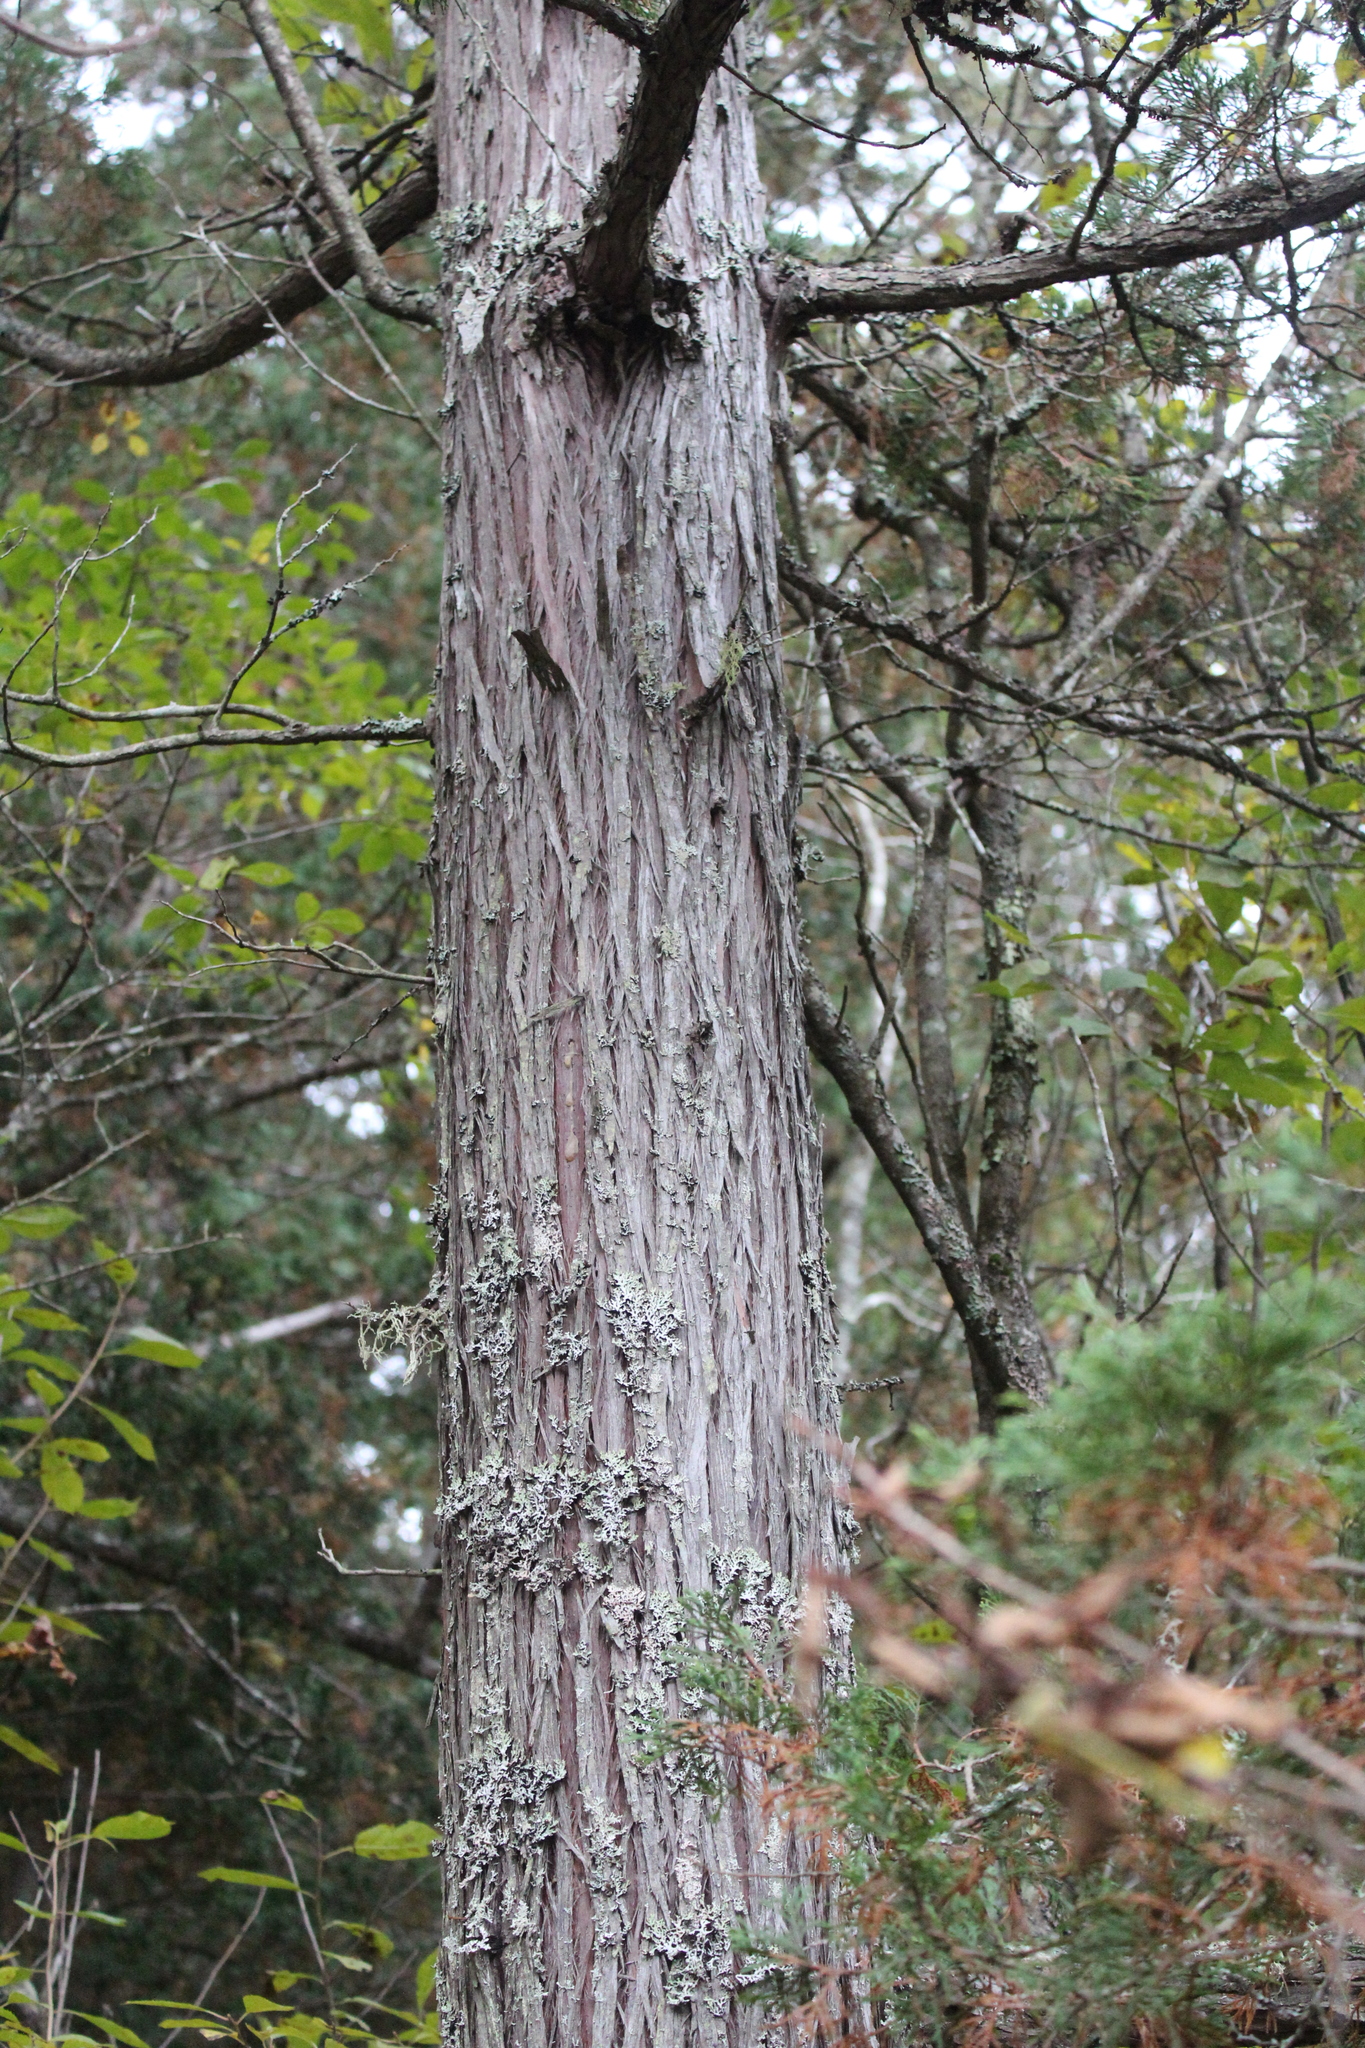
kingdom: Plantae
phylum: Tracheophyta
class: Pinopsida
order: Pinales
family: Cupressaceae
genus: Chamaecyparis
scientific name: Chamaecyparis thyoides
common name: Atlantic white cedar
